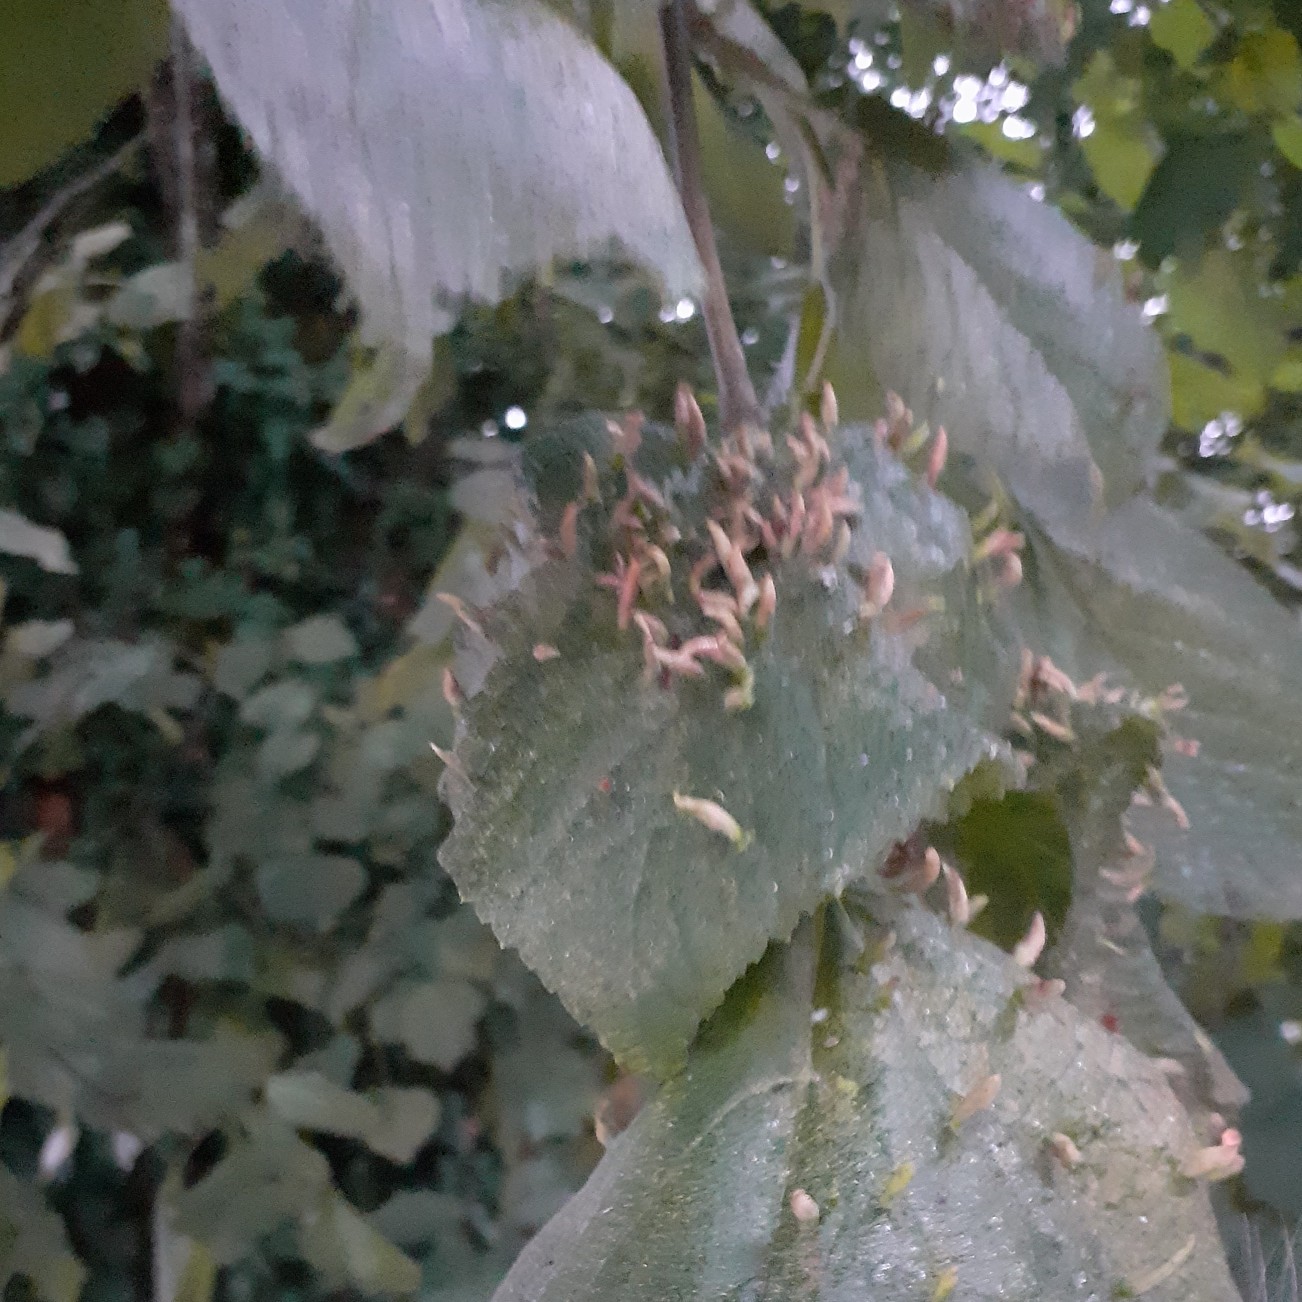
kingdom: Animalia
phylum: Arthropoda
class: Arachnida
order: Trombidiformes
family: Eriophyidae
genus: Eriophyes
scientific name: Eriophyes tiliae
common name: Red nail gall mite
